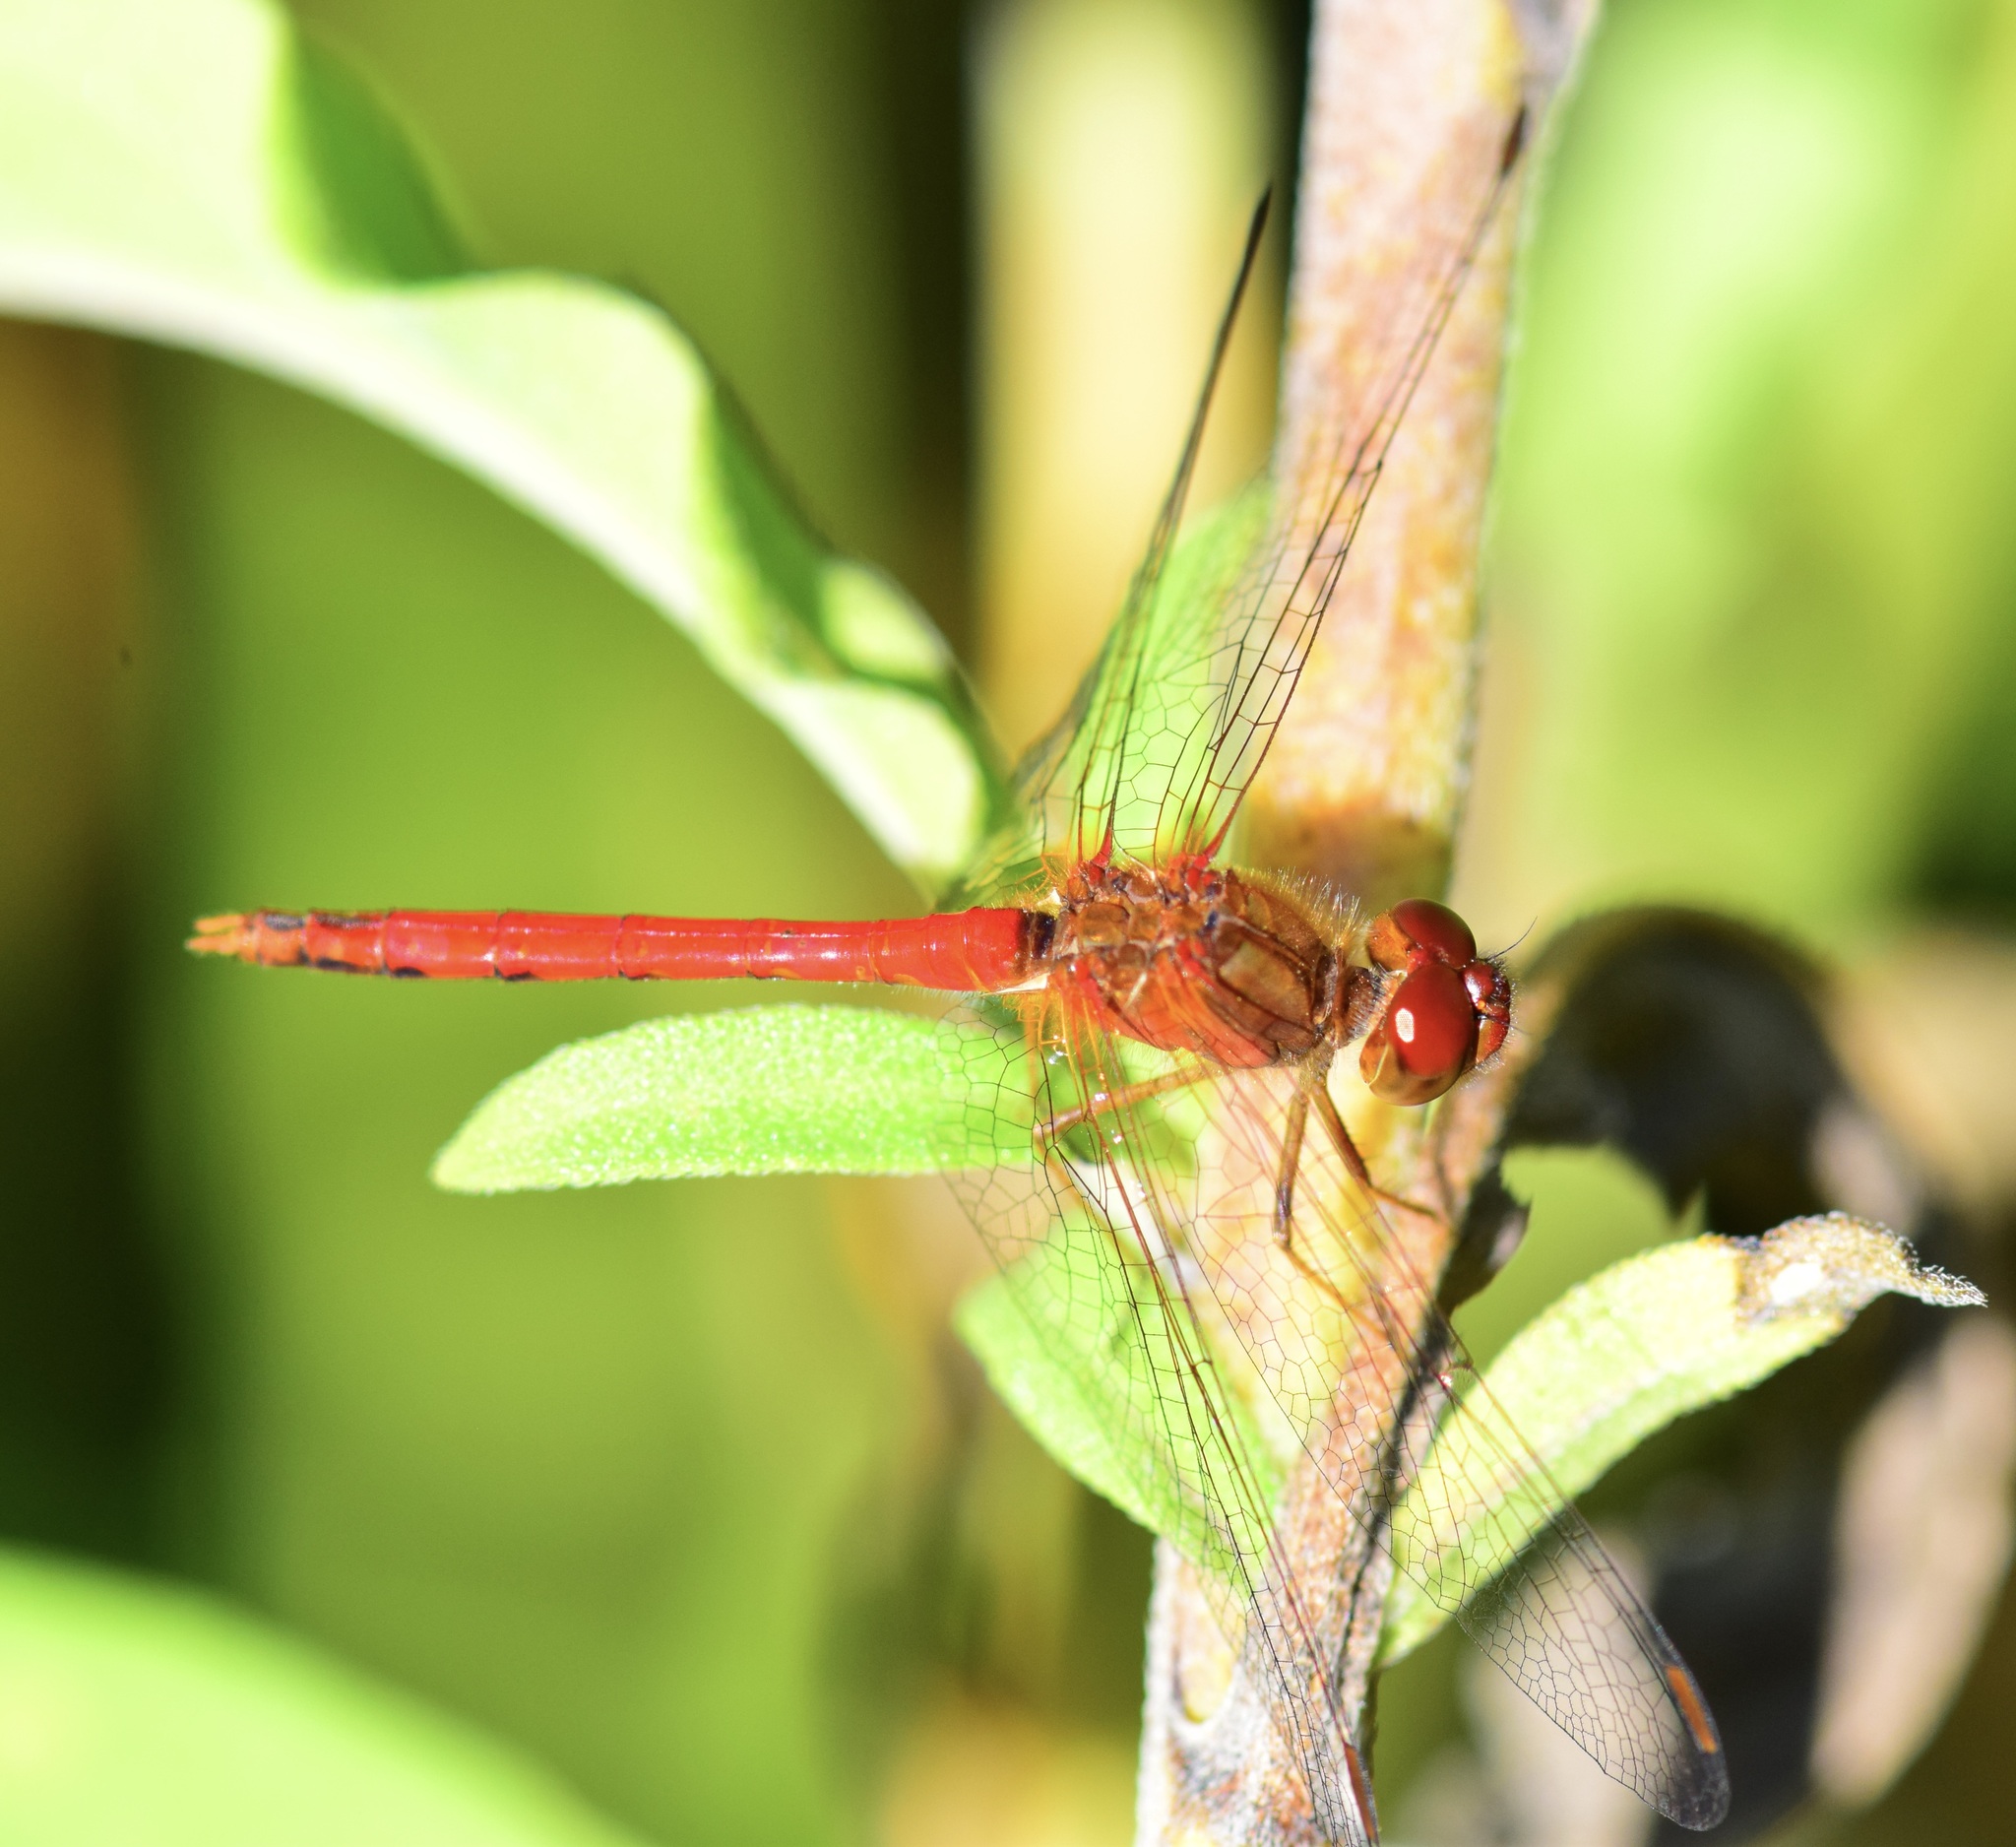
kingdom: Animalia
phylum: Arthropoda
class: Insecta
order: Odonata
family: Libellulidae
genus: Sympetrum
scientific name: Sympetrum vicinum
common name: Autumn meadowhawk
